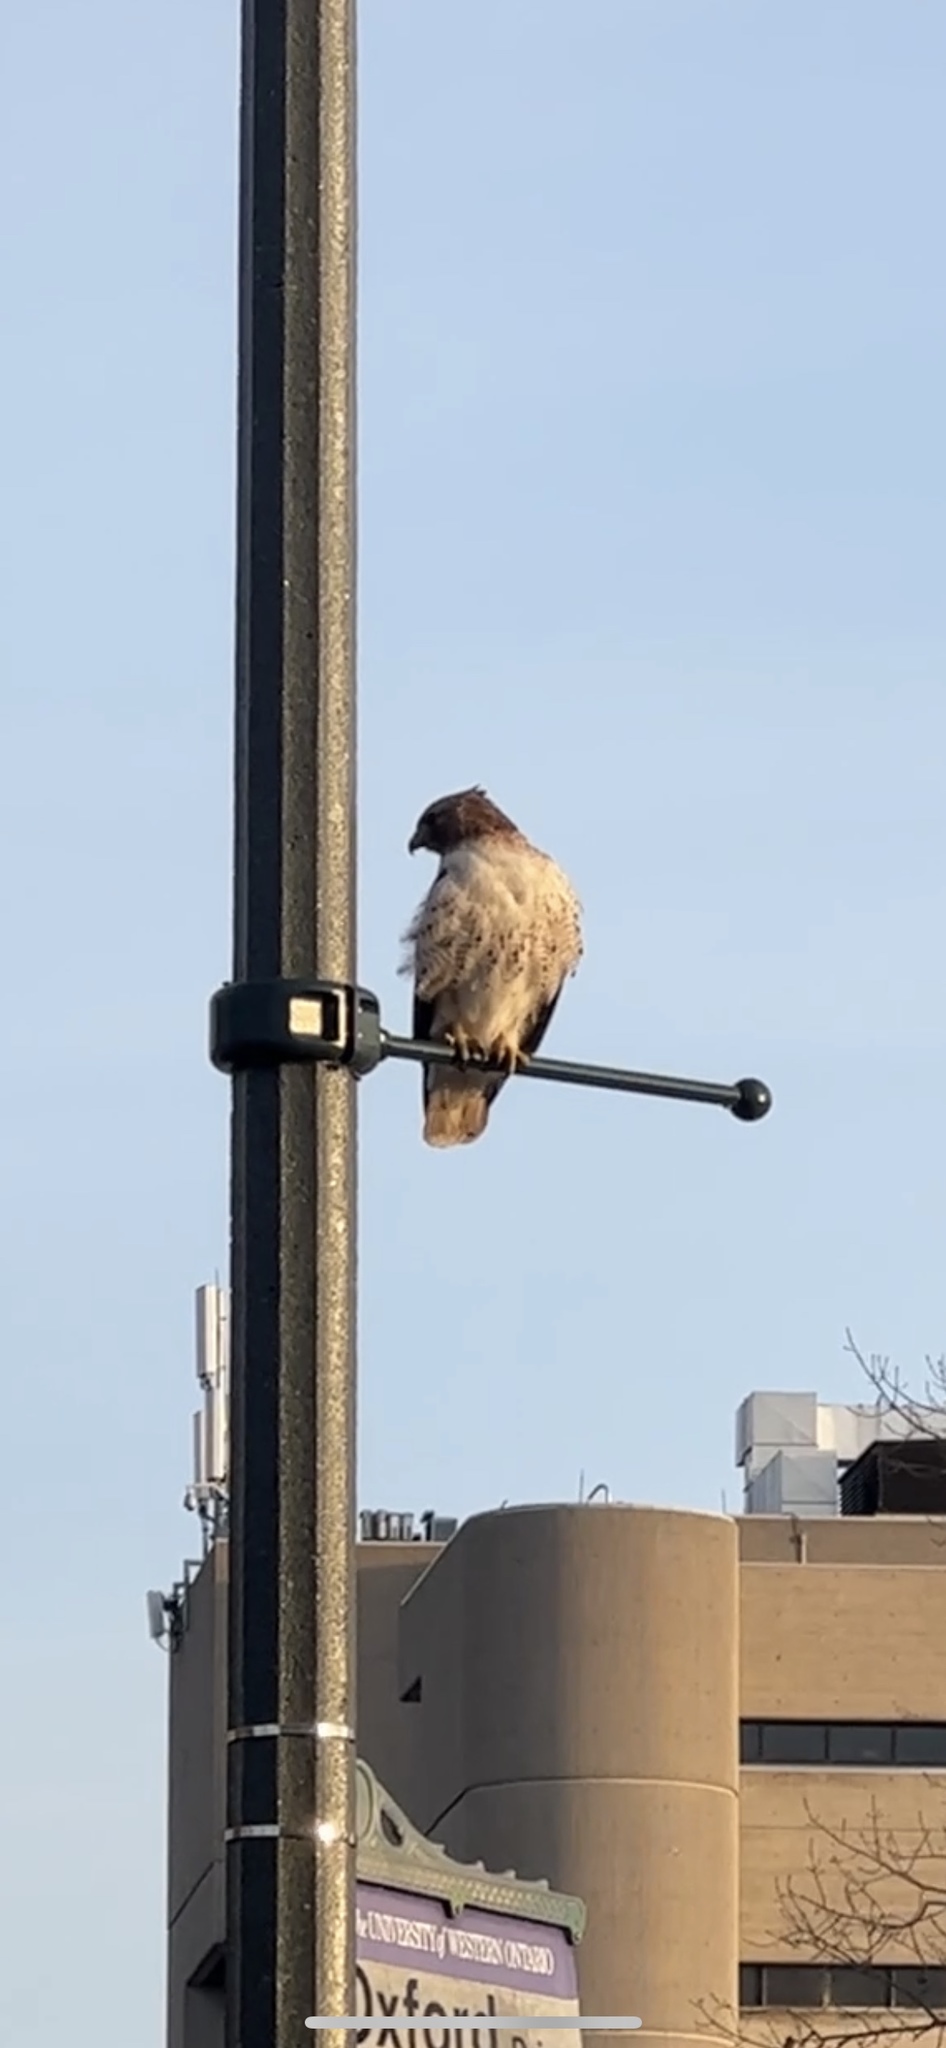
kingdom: Animalia
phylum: Chordata
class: Aves
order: Accipitriformes
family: Accipitridae
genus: Buteo
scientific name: Buteo jamaicensis
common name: Red-tailed hawk
